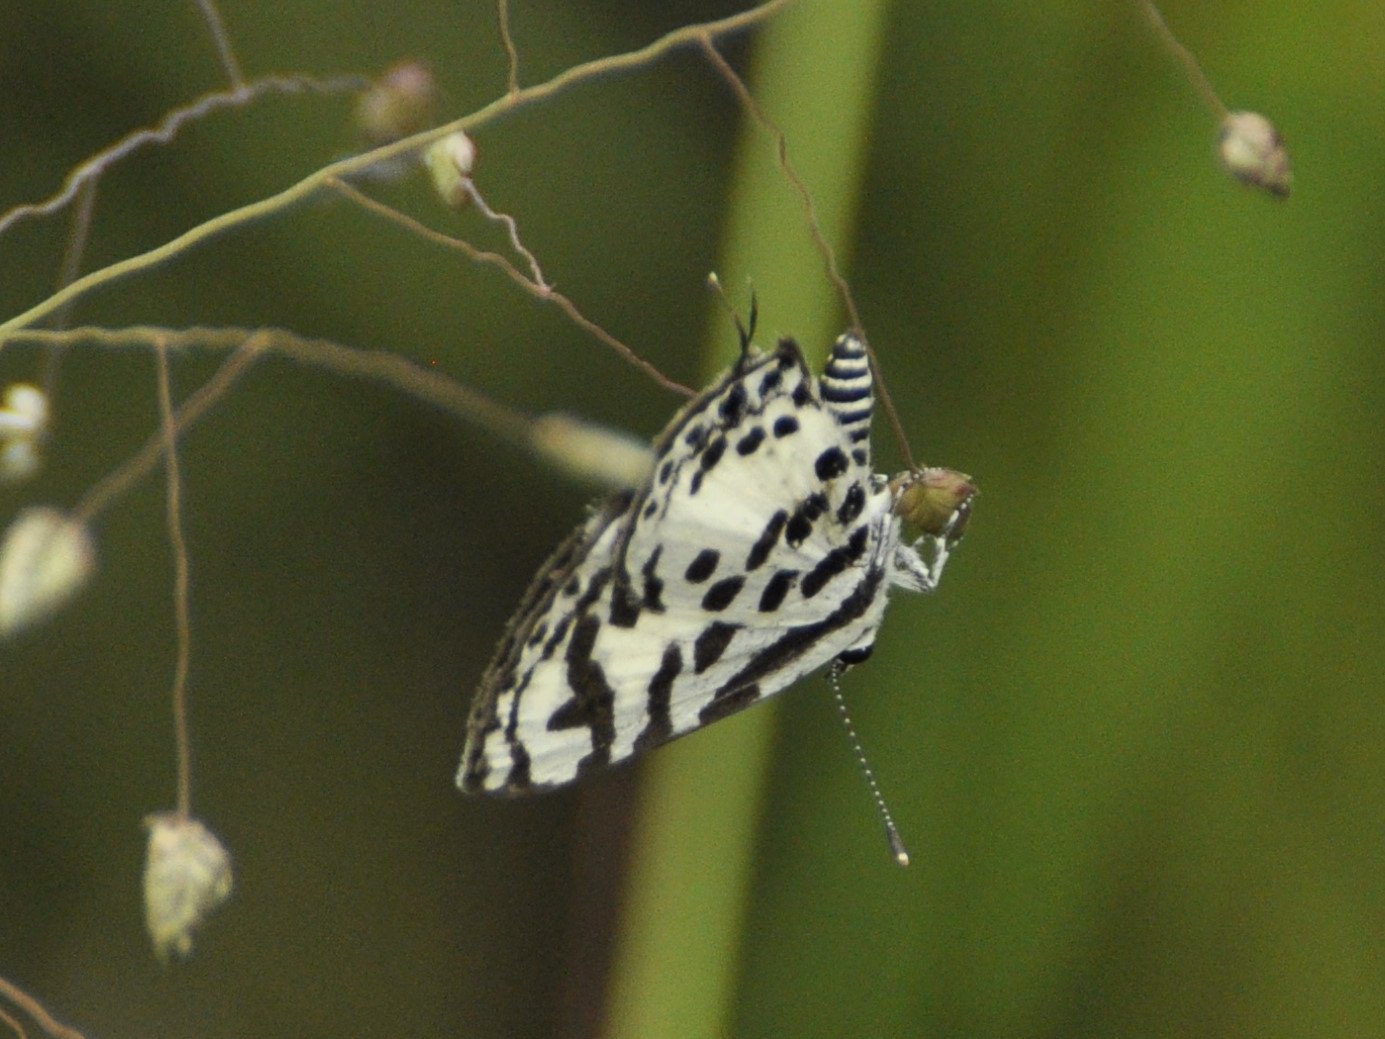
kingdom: Animalia
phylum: Arthropoda
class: Insecta
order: Lepidoptera
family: Lycaenidae
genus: Castalius
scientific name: Castalius calice
